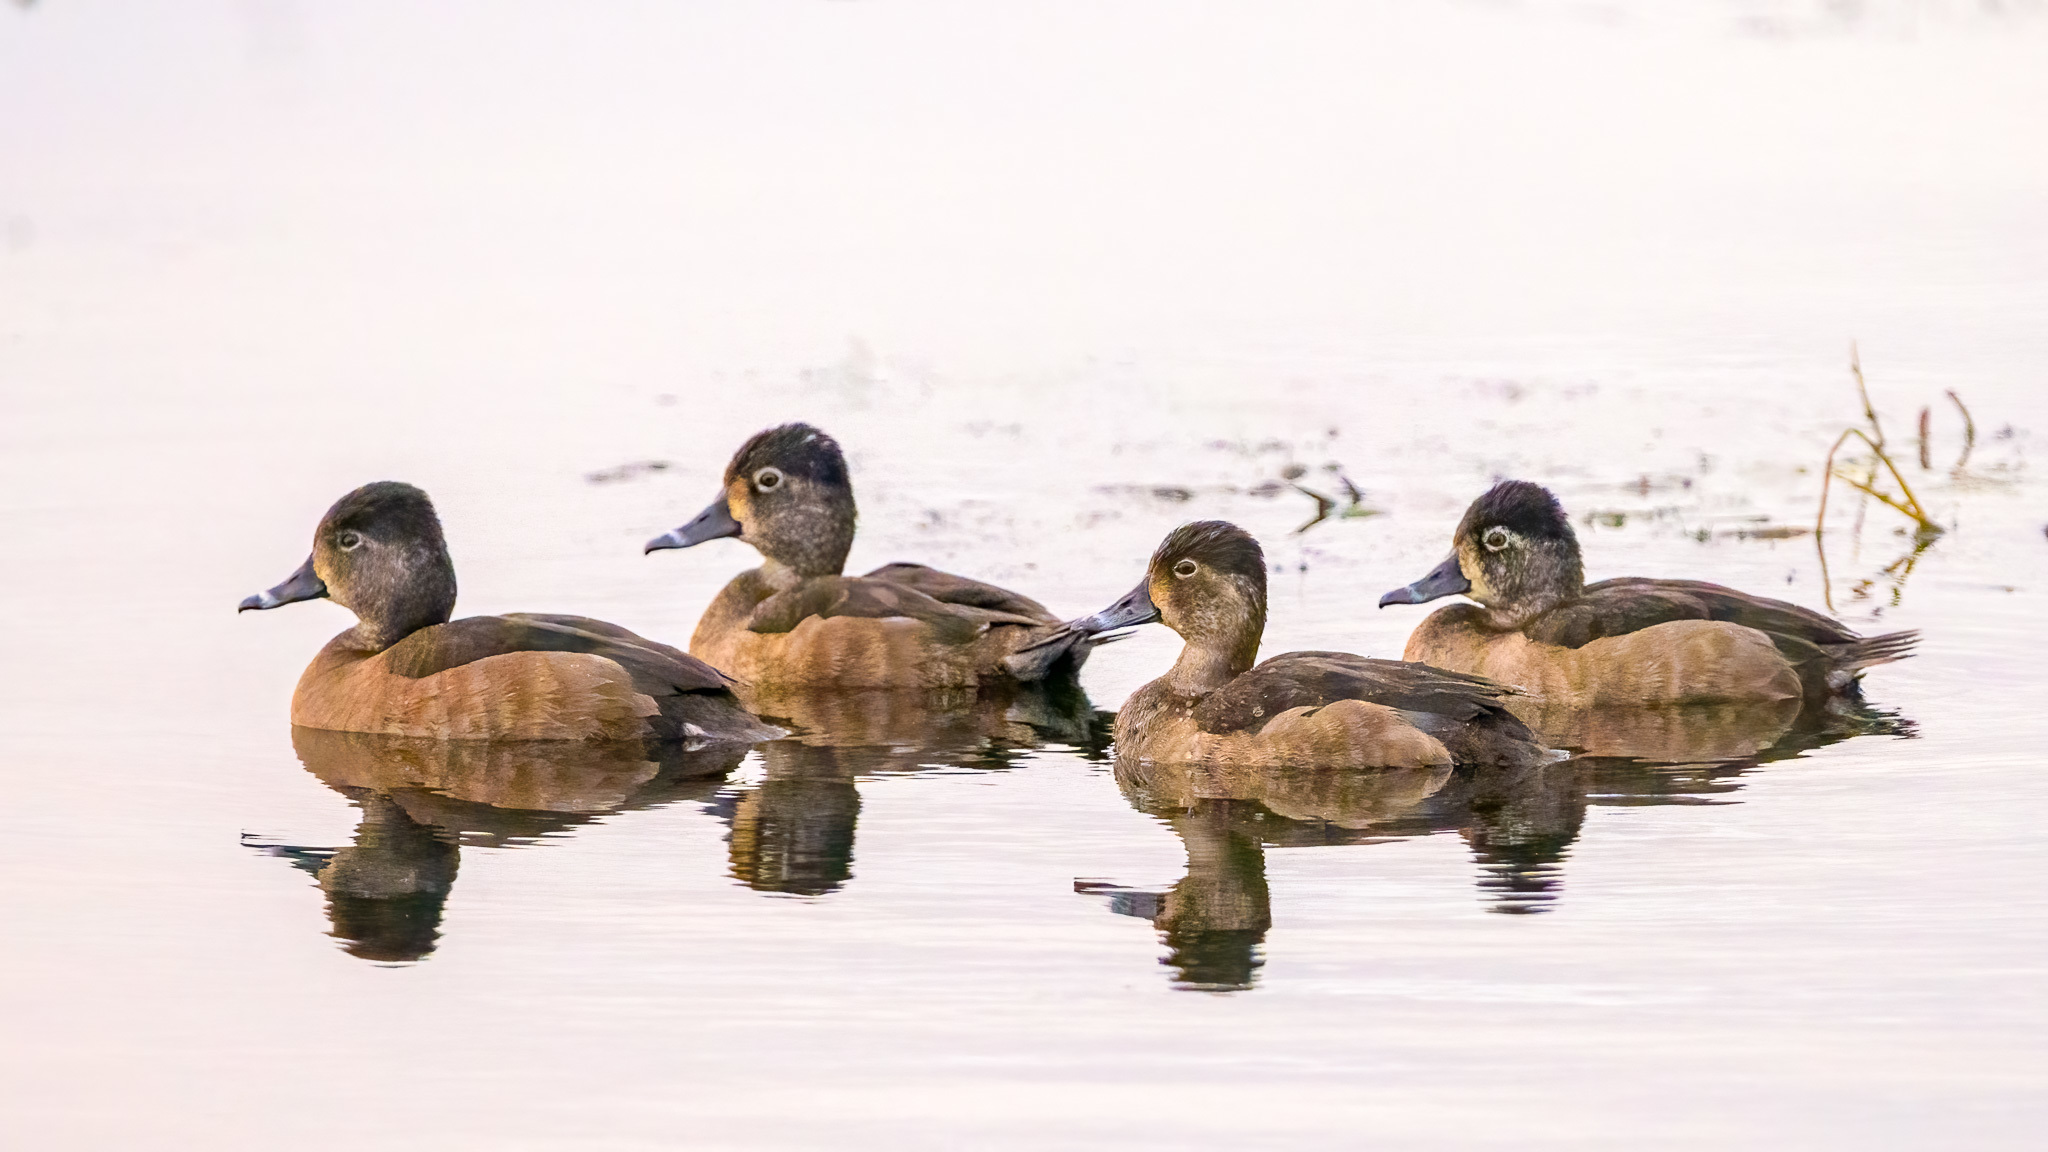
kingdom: Animalia
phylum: Chordata
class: Aves
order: Anseriformes
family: Anatidae
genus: Aythya
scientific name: Aythya collaris
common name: Ring-necked duck
